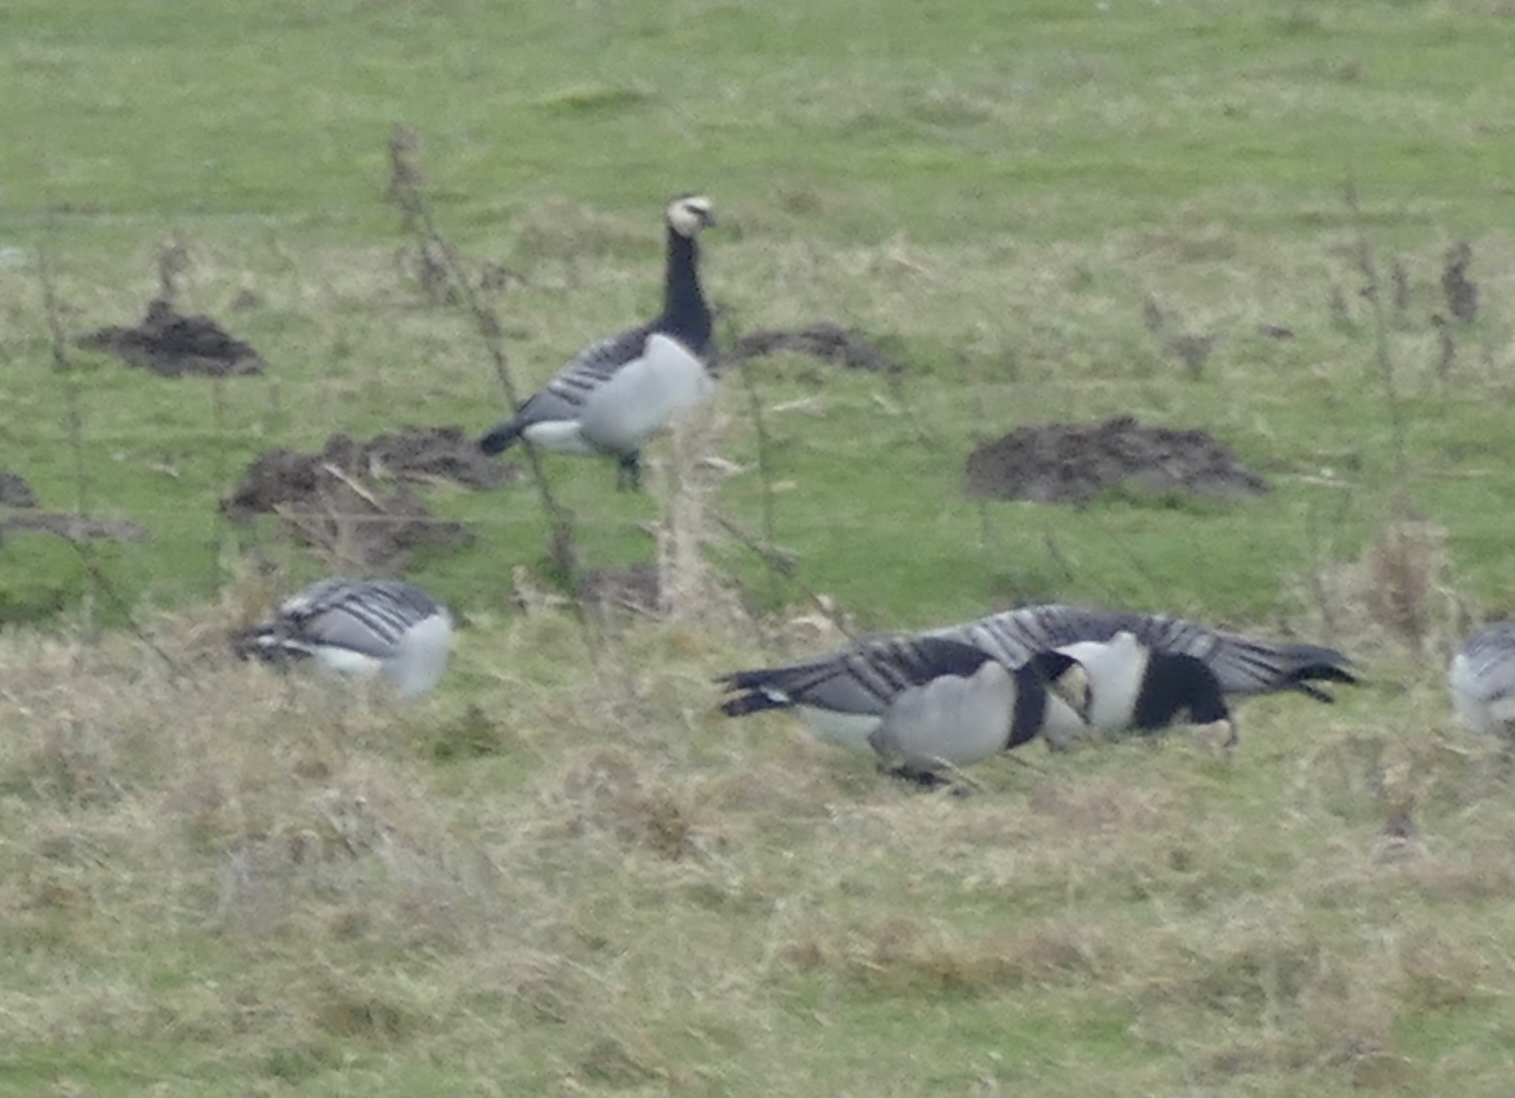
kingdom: Animalia
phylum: Chordata
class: Aves
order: Anseriformes
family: Anatidae
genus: Branta
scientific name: Branta leucopsis
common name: Barnacle goose
